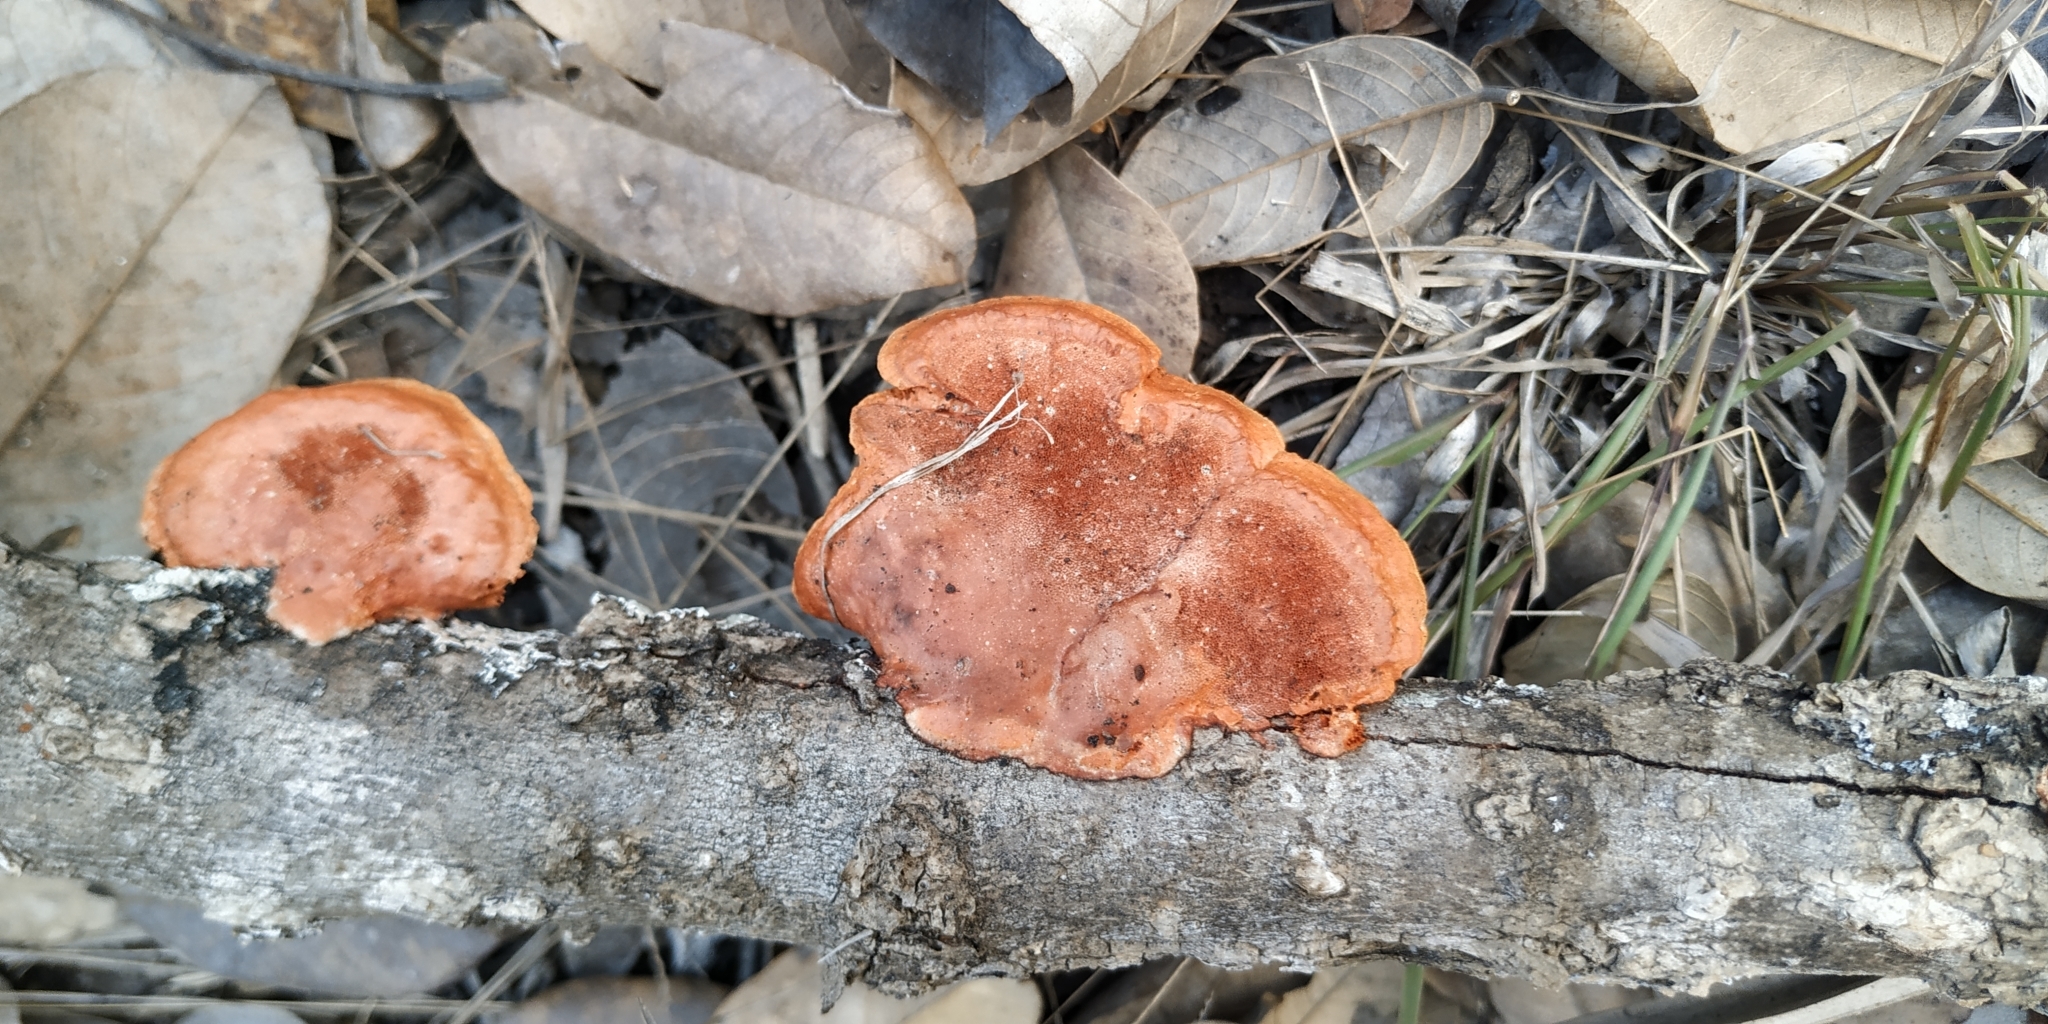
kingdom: Fungi
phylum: Basidiomycota
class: Agaricomycetes
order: Polyporales
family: Polyporaceae
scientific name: Polyporaceae
